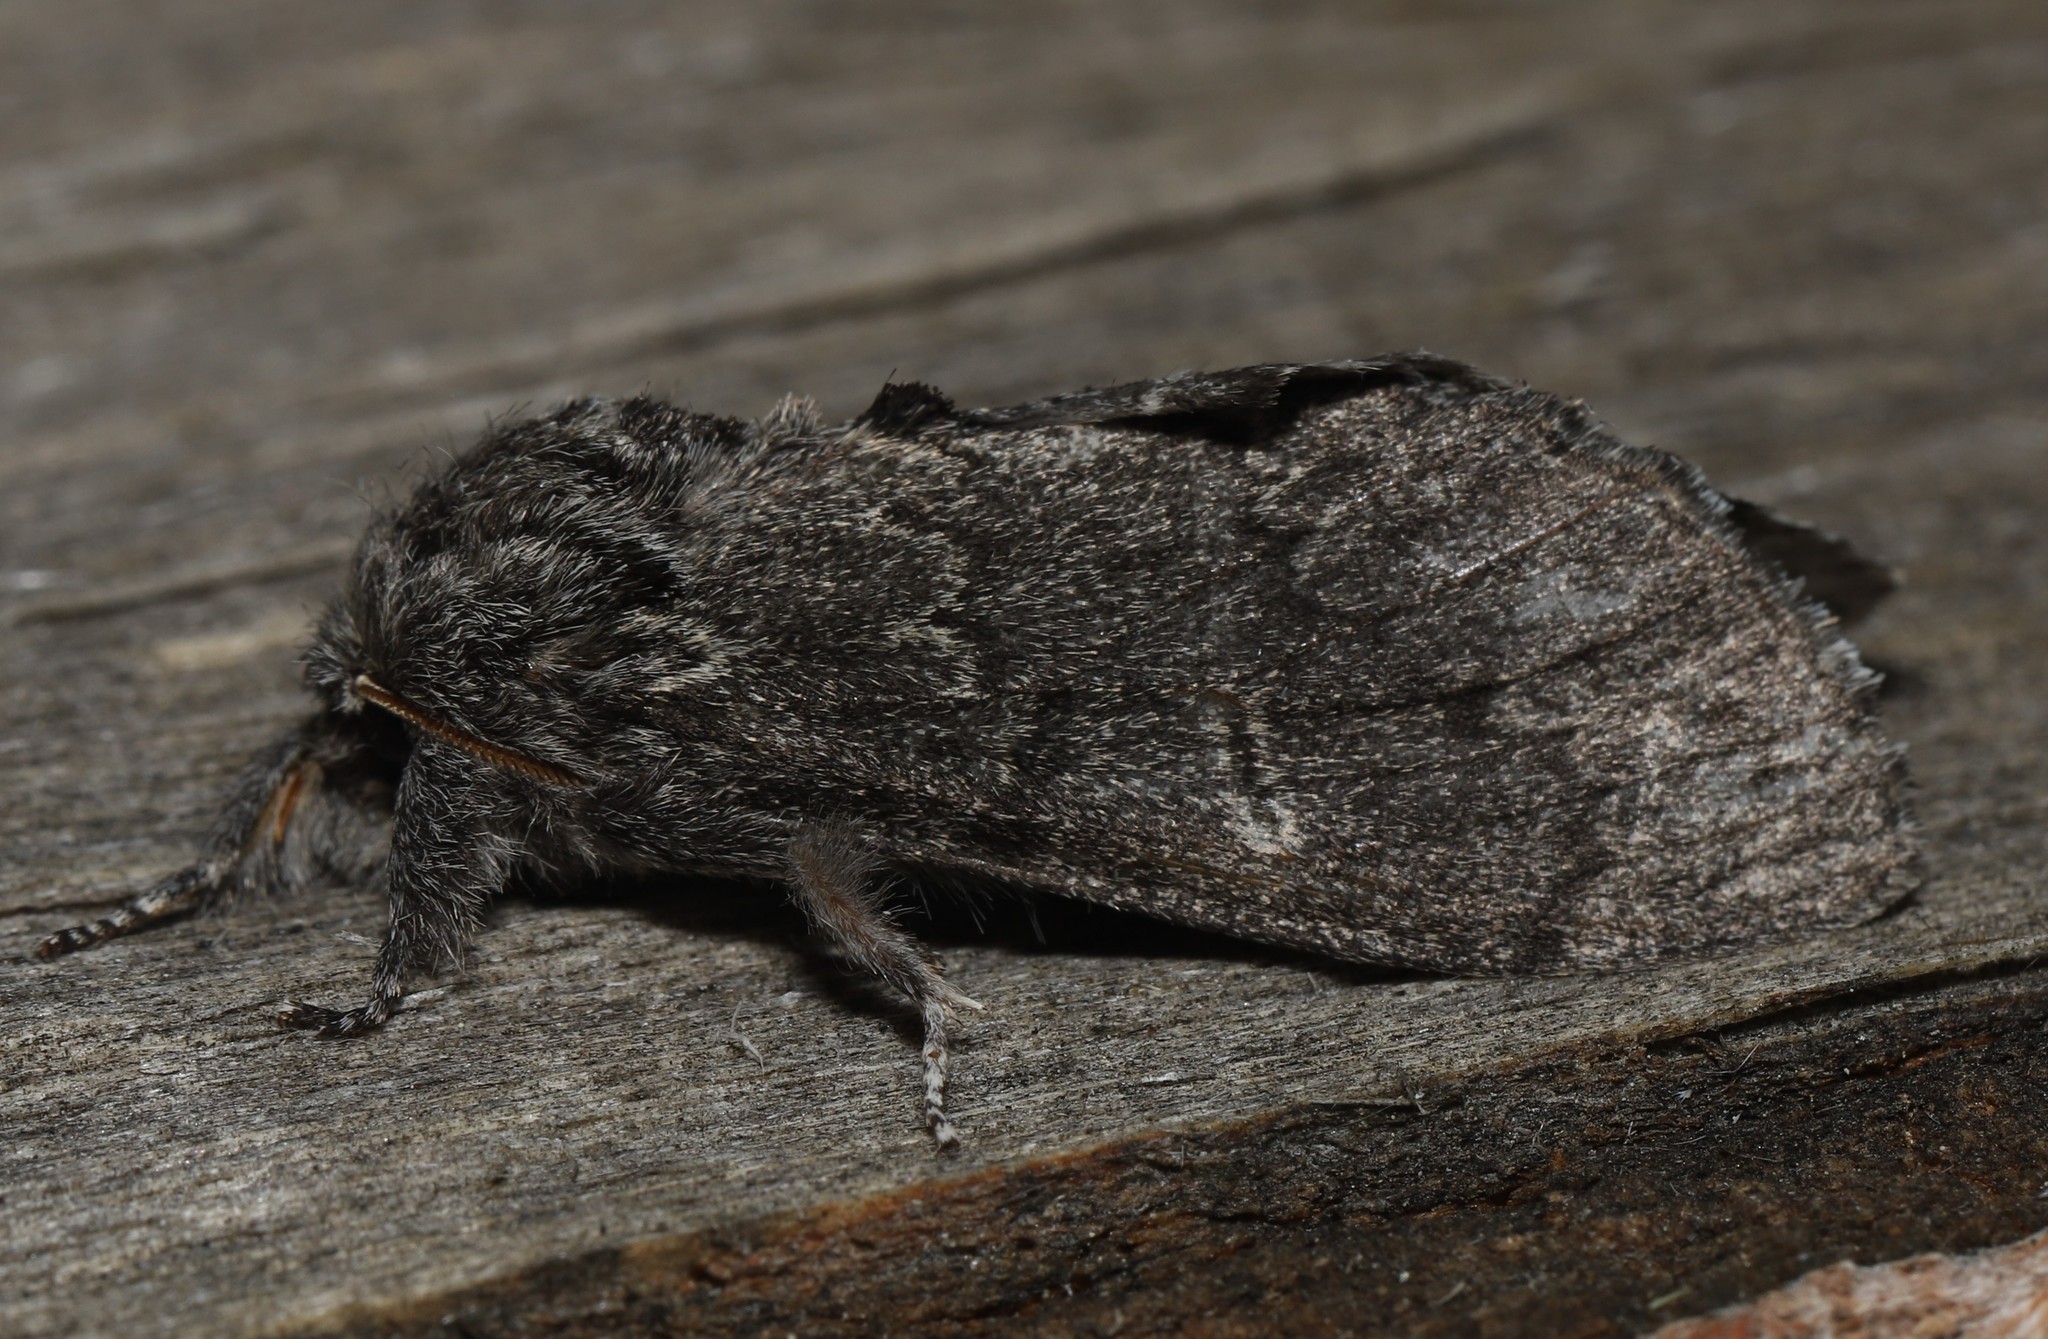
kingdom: Animalia
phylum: Arthropoda
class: Insecta
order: Lepidoptera
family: Notodontidae
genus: Notodonta
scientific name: Notodonta torva
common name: Large dark prominent
